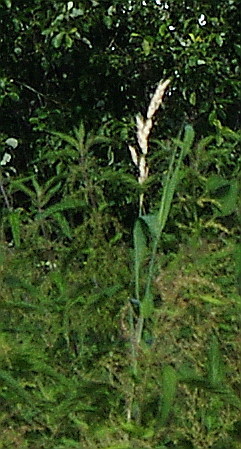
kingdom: Plantae
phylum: Tracheophyta
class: Liliopsida
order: Poales
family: Poaceae
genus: Dactylis
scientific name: Dactylis glomerata
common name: Orchardgrass
